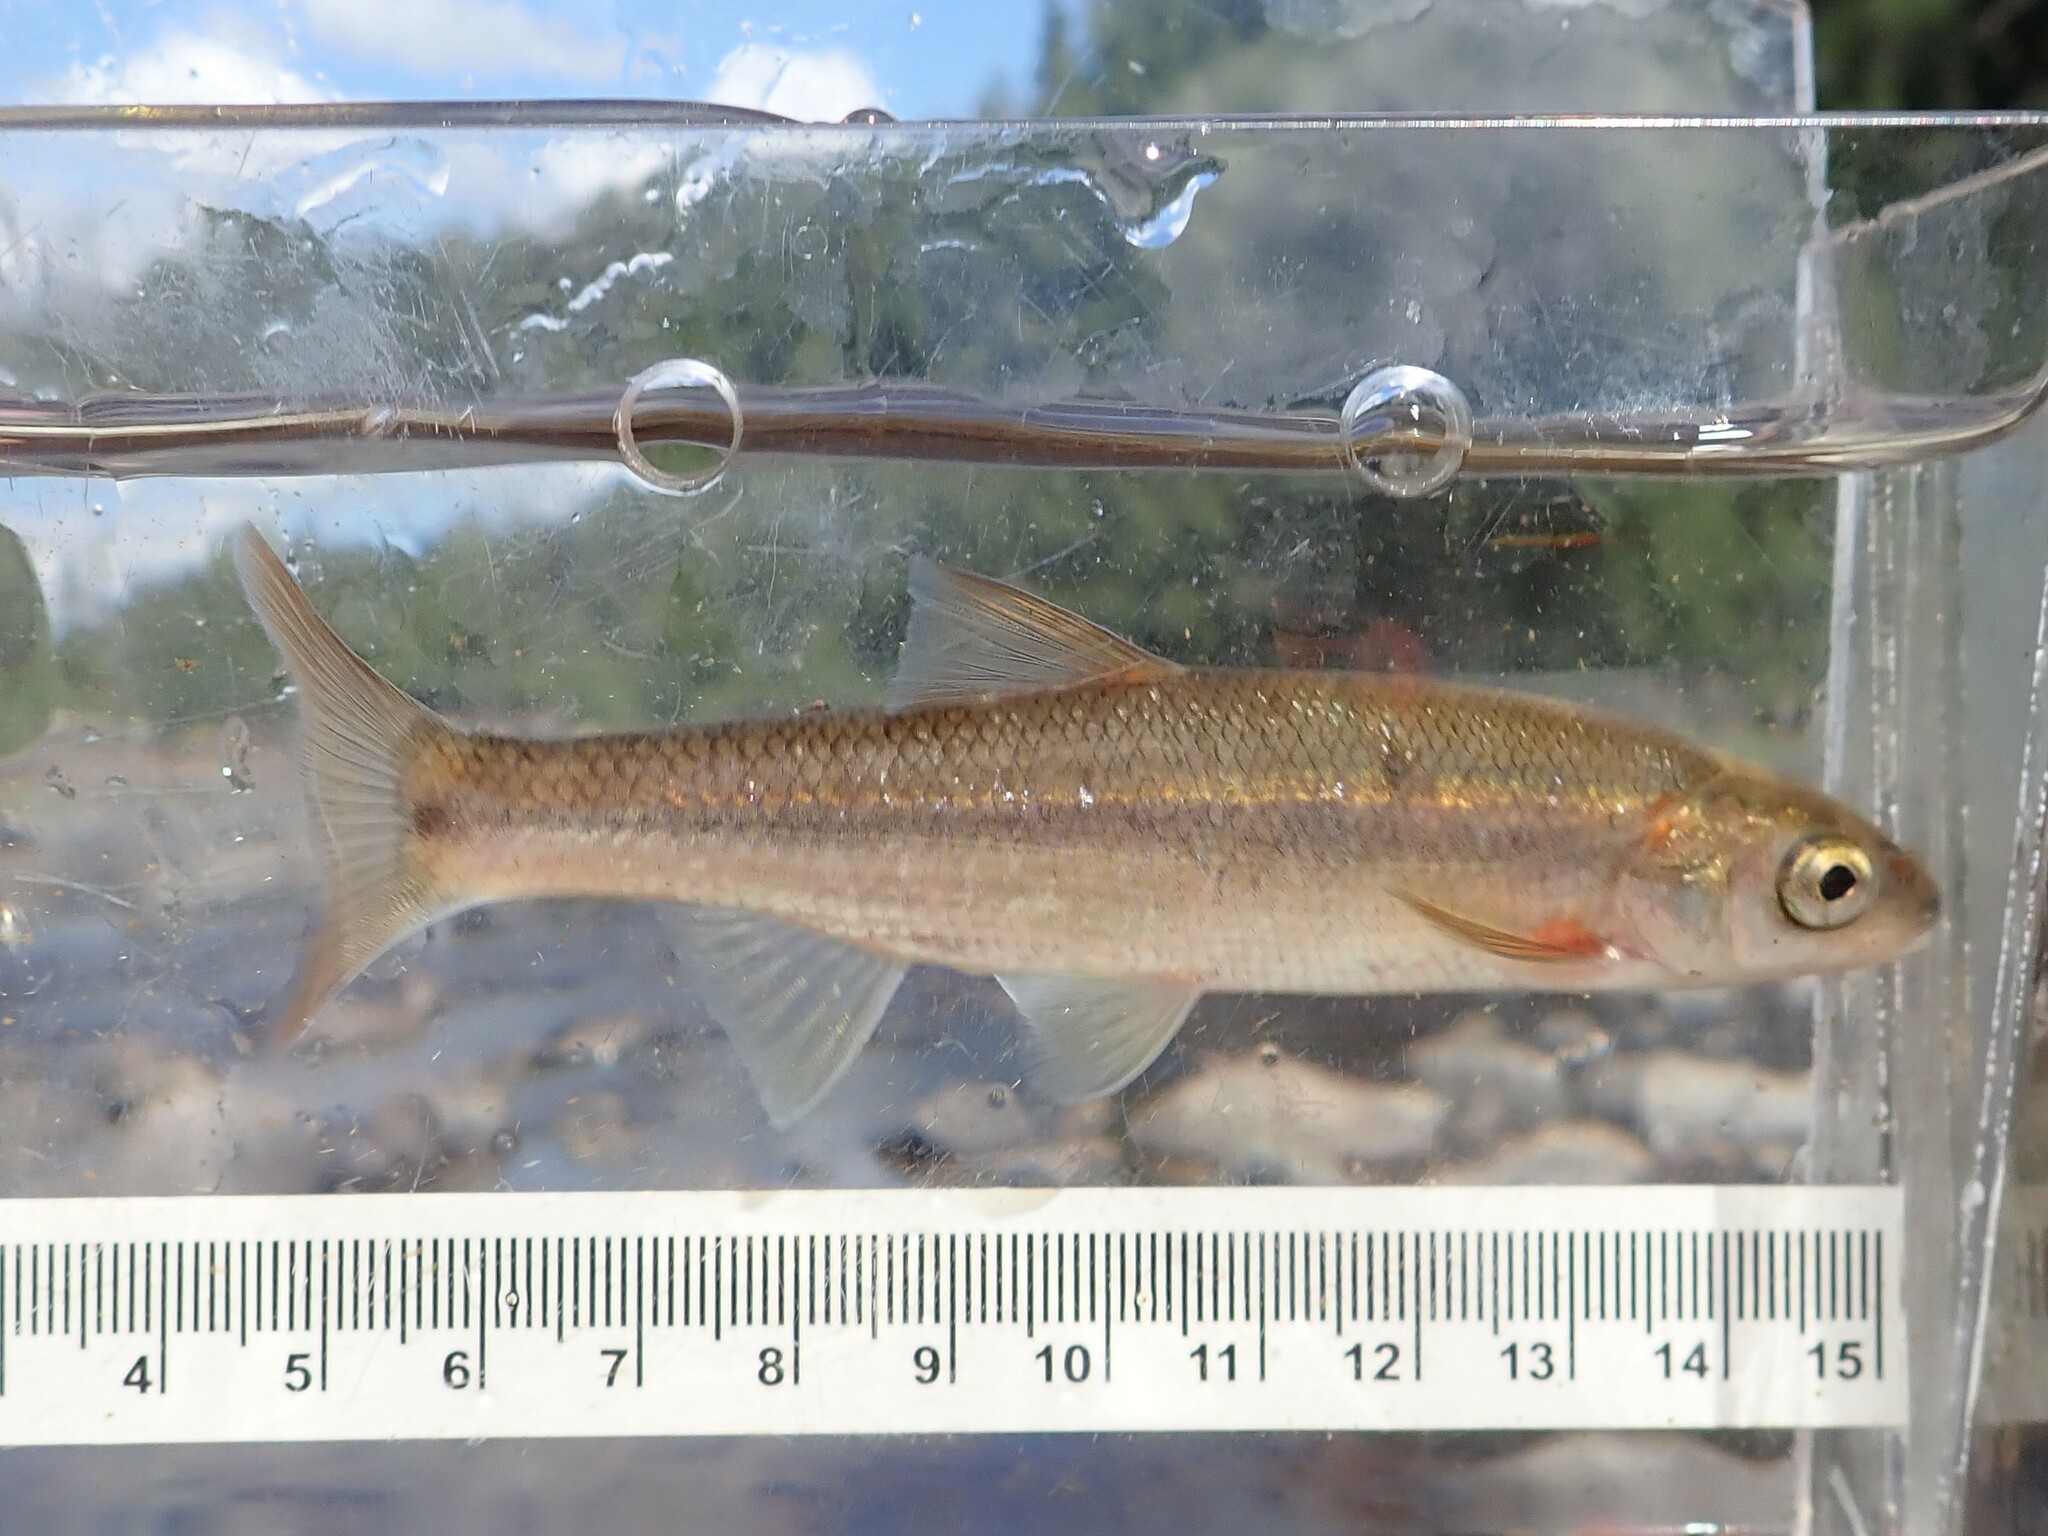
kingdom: Animalia
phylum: Chordata
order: Cypriniformes
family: Cyprinidae
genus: Couesius
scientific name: Couesius plumbeus
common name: Lake chub
